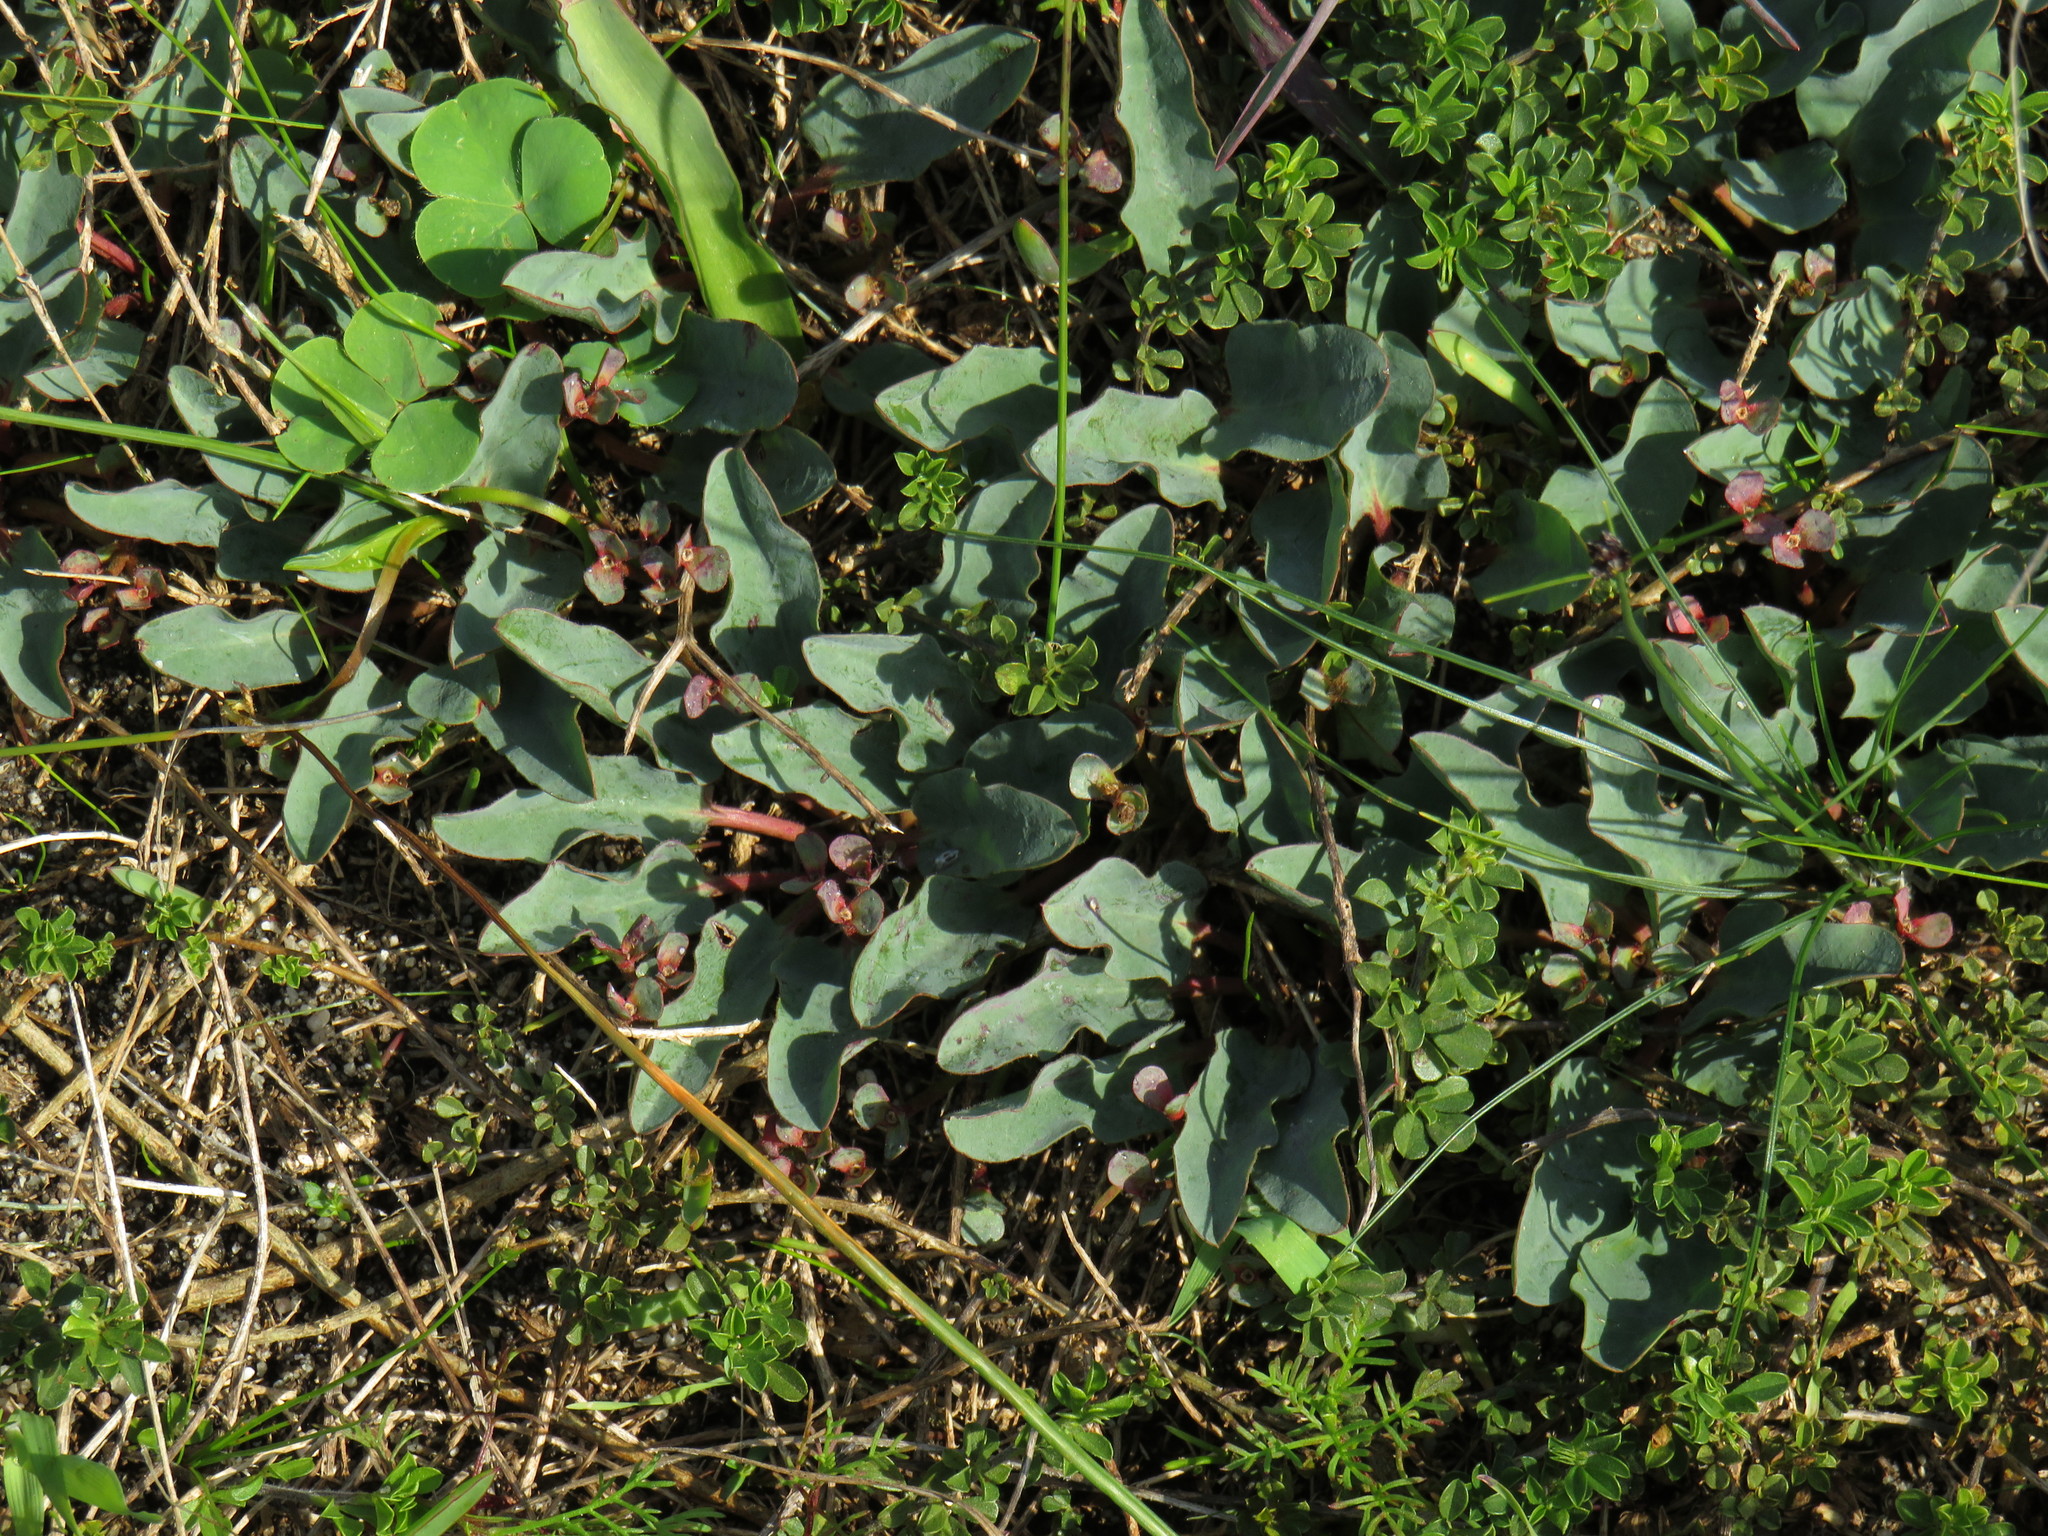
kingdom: Plantae
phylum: Tracheophyta
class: Magnoliopsida
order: Malpighiales
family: Euphorbiaceae
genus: Euphorbia
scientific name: Euphorbia tuberosa
